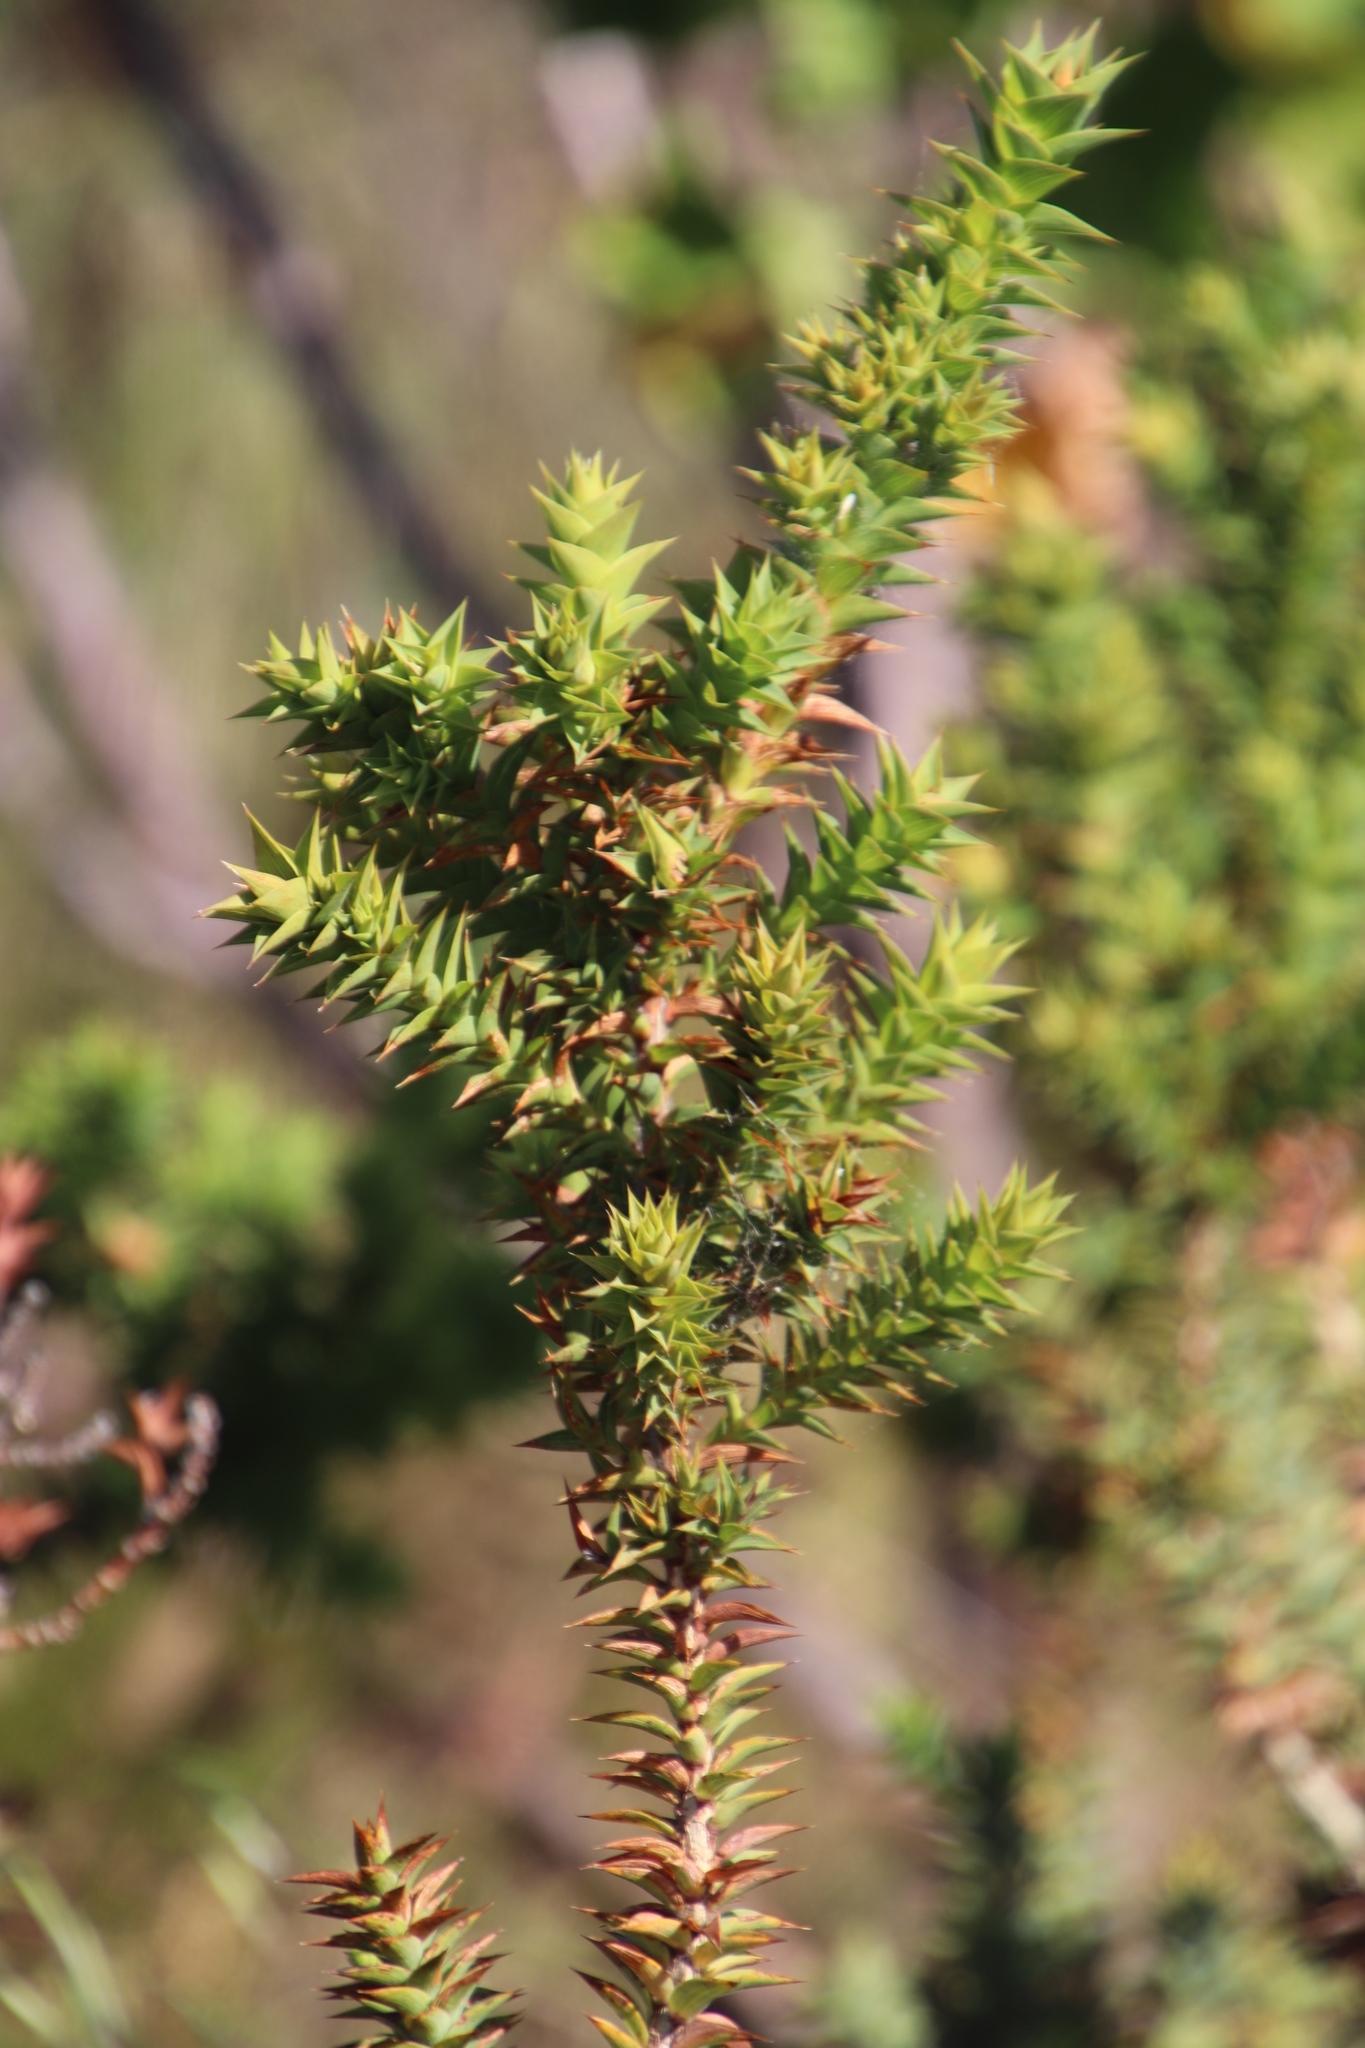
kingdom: Plantae
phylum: Tracheophyta
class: Magnoliopsida
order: Fabales
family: Fabaceae
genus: Aspalathus
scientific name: Aspalathus cordata
